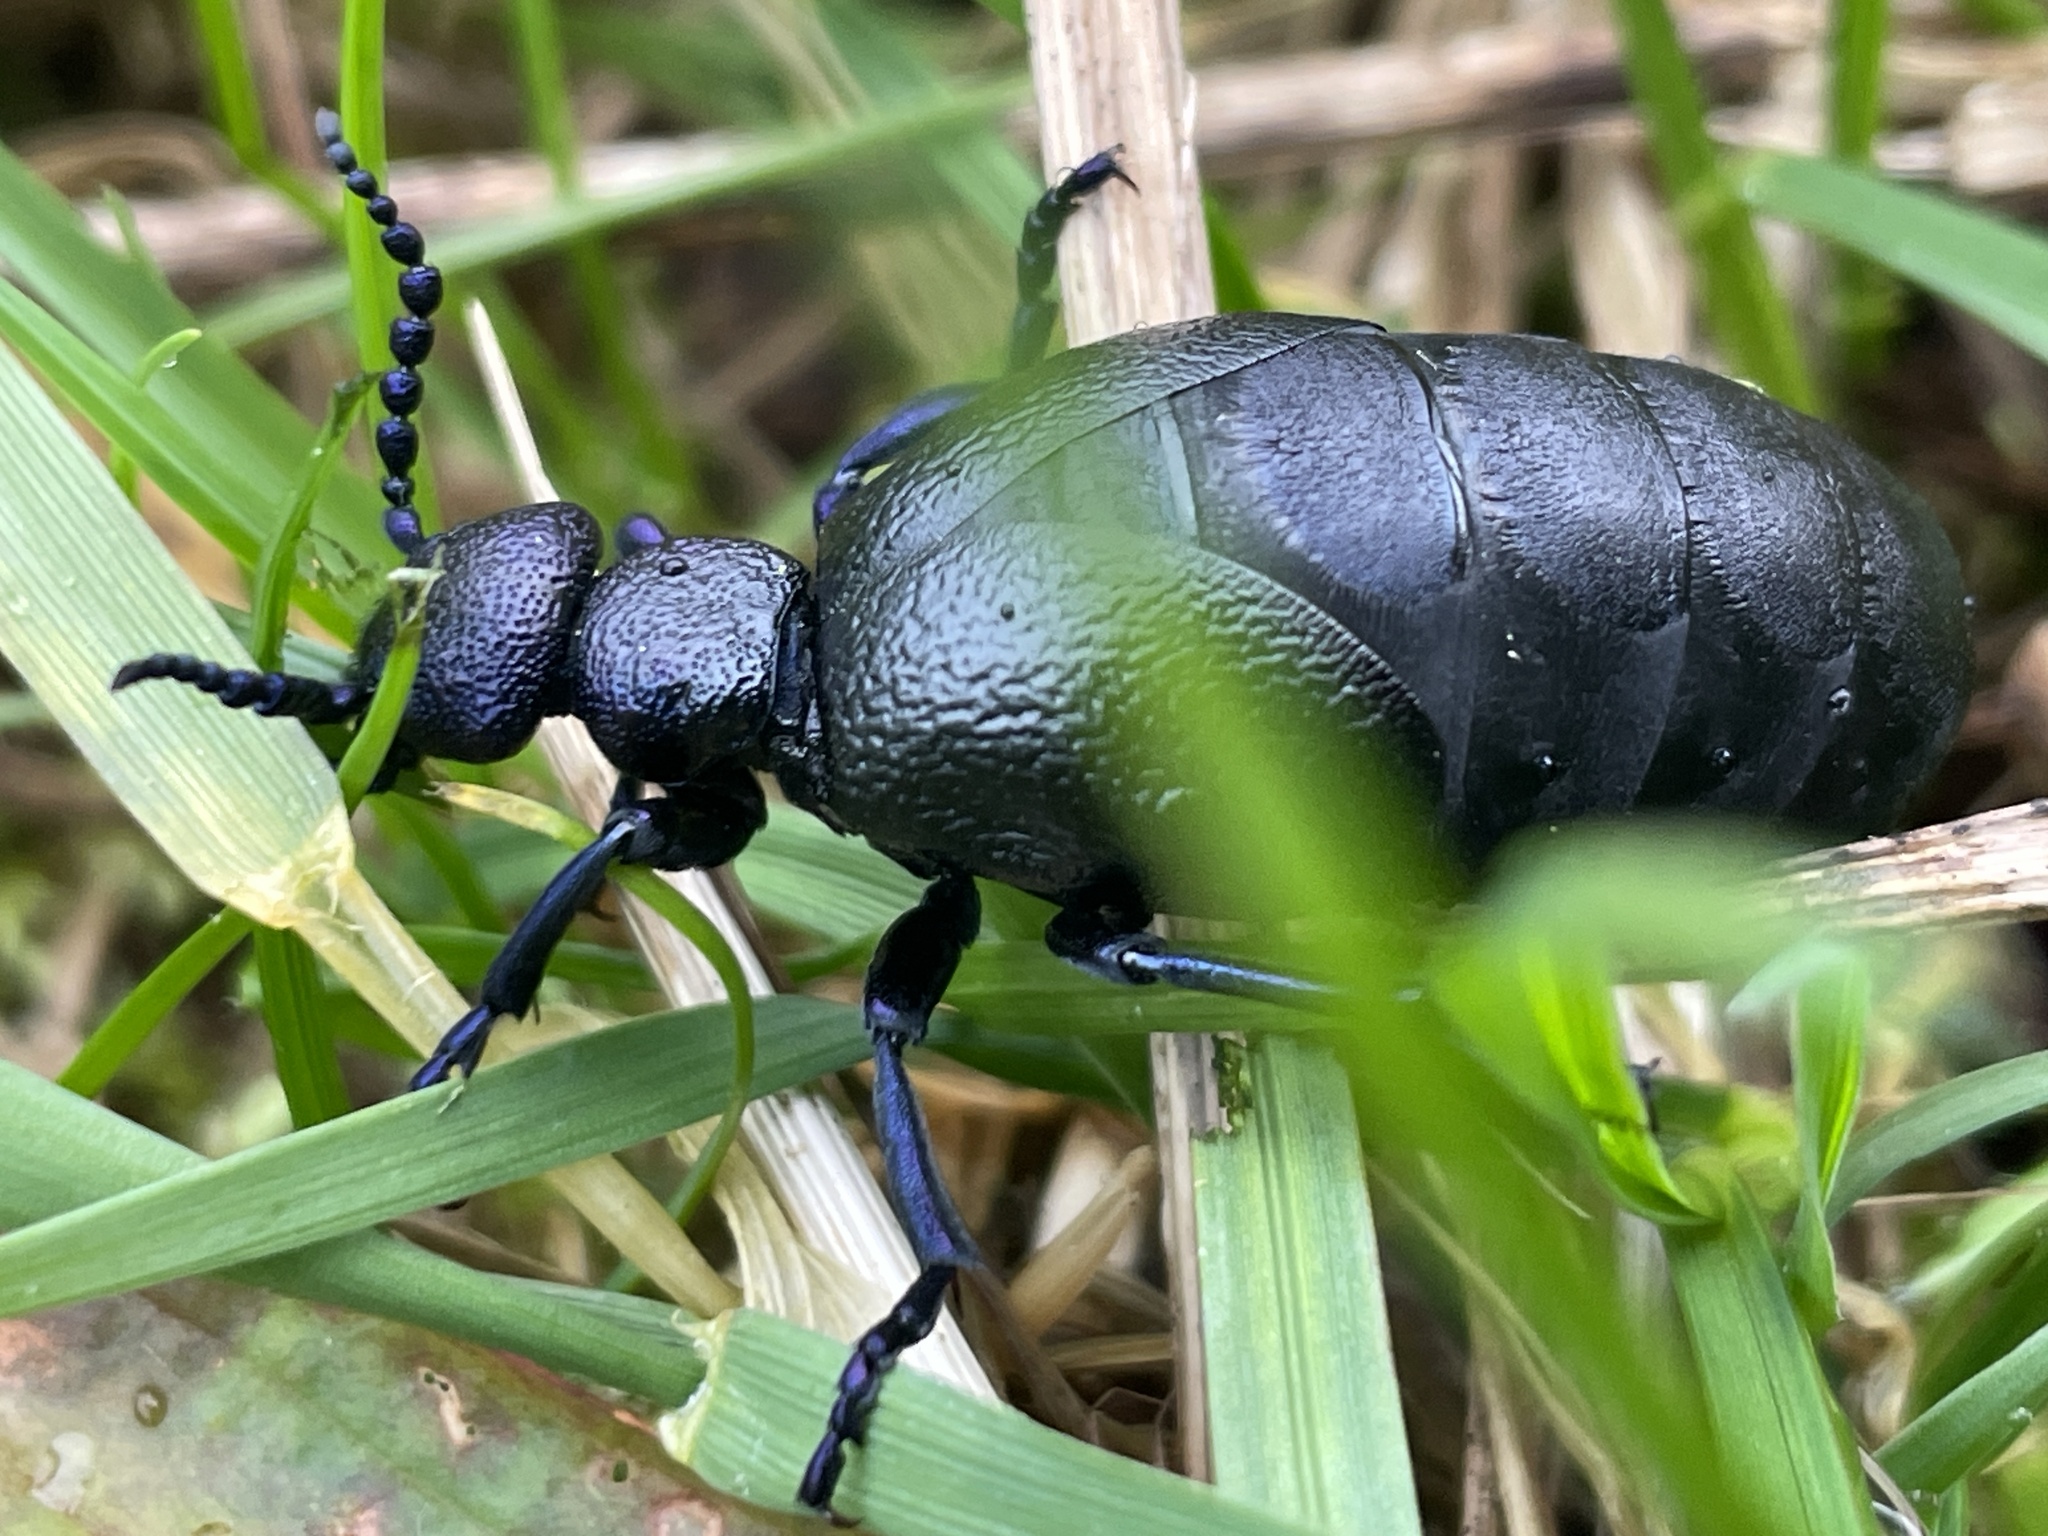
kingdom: Animalia
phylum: Arthropoda
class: Insecta
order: Coleoptera
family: Meloidae
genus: Meloe
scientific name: Meloe proscarabaeus
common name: Black oil-beetle
